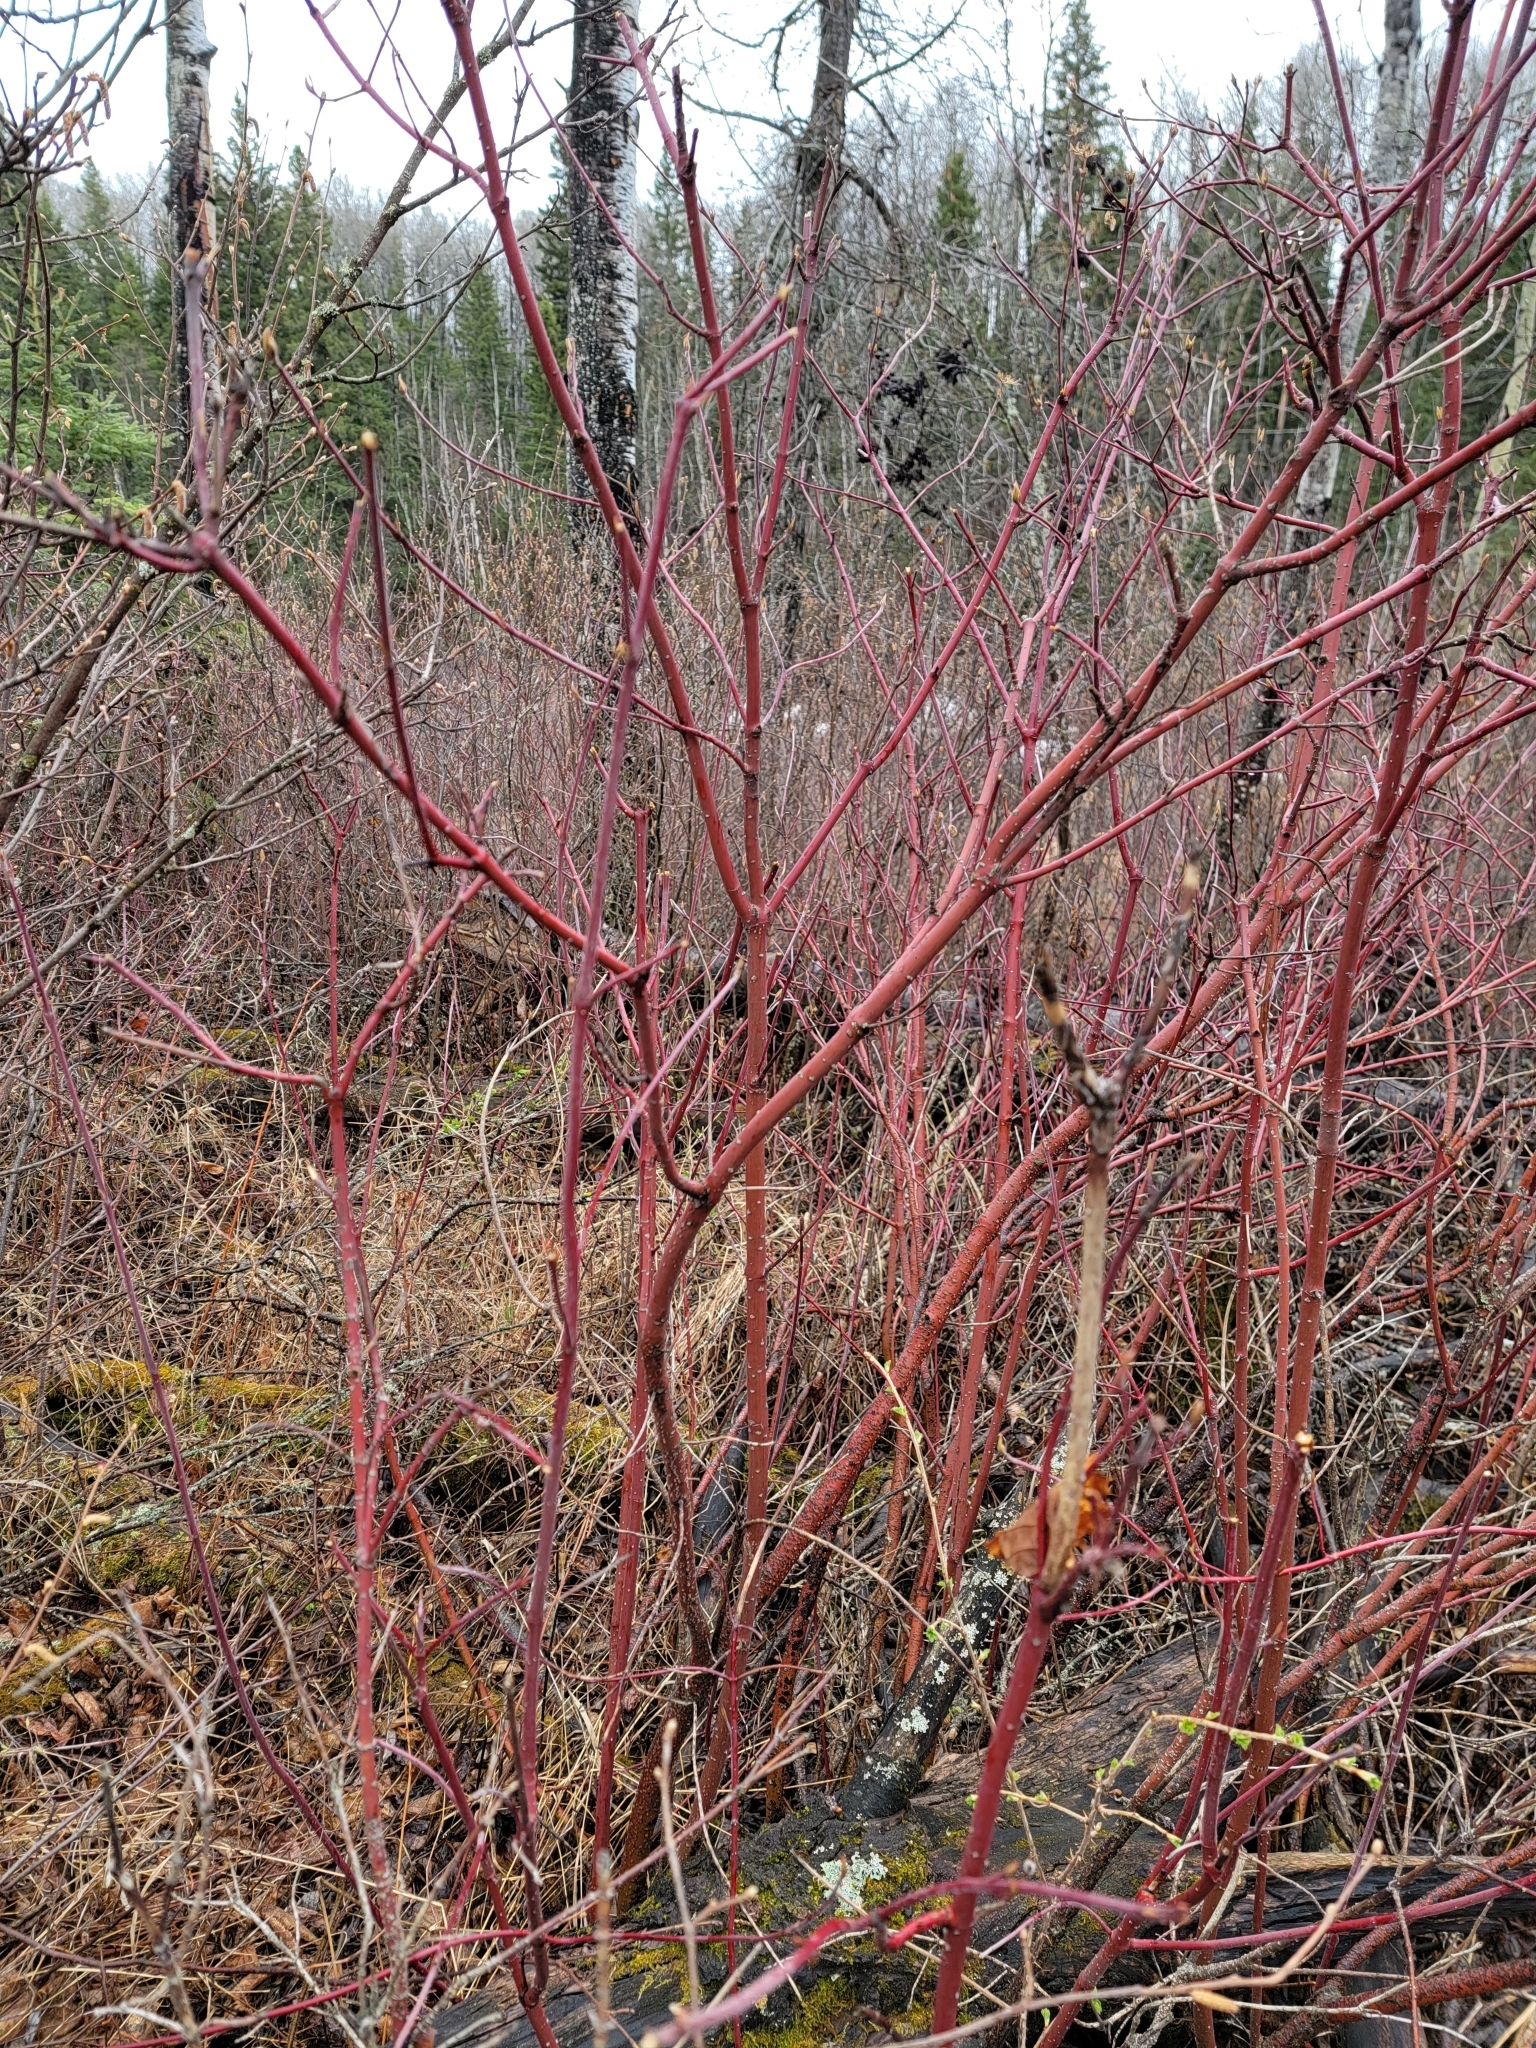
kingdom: Plantae
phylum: Tracheophyta
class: Magnoliopsida
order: Cornales
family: Cornaceae
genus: Cornus
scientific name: Cornus sericea
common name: Red-osier dogwood
